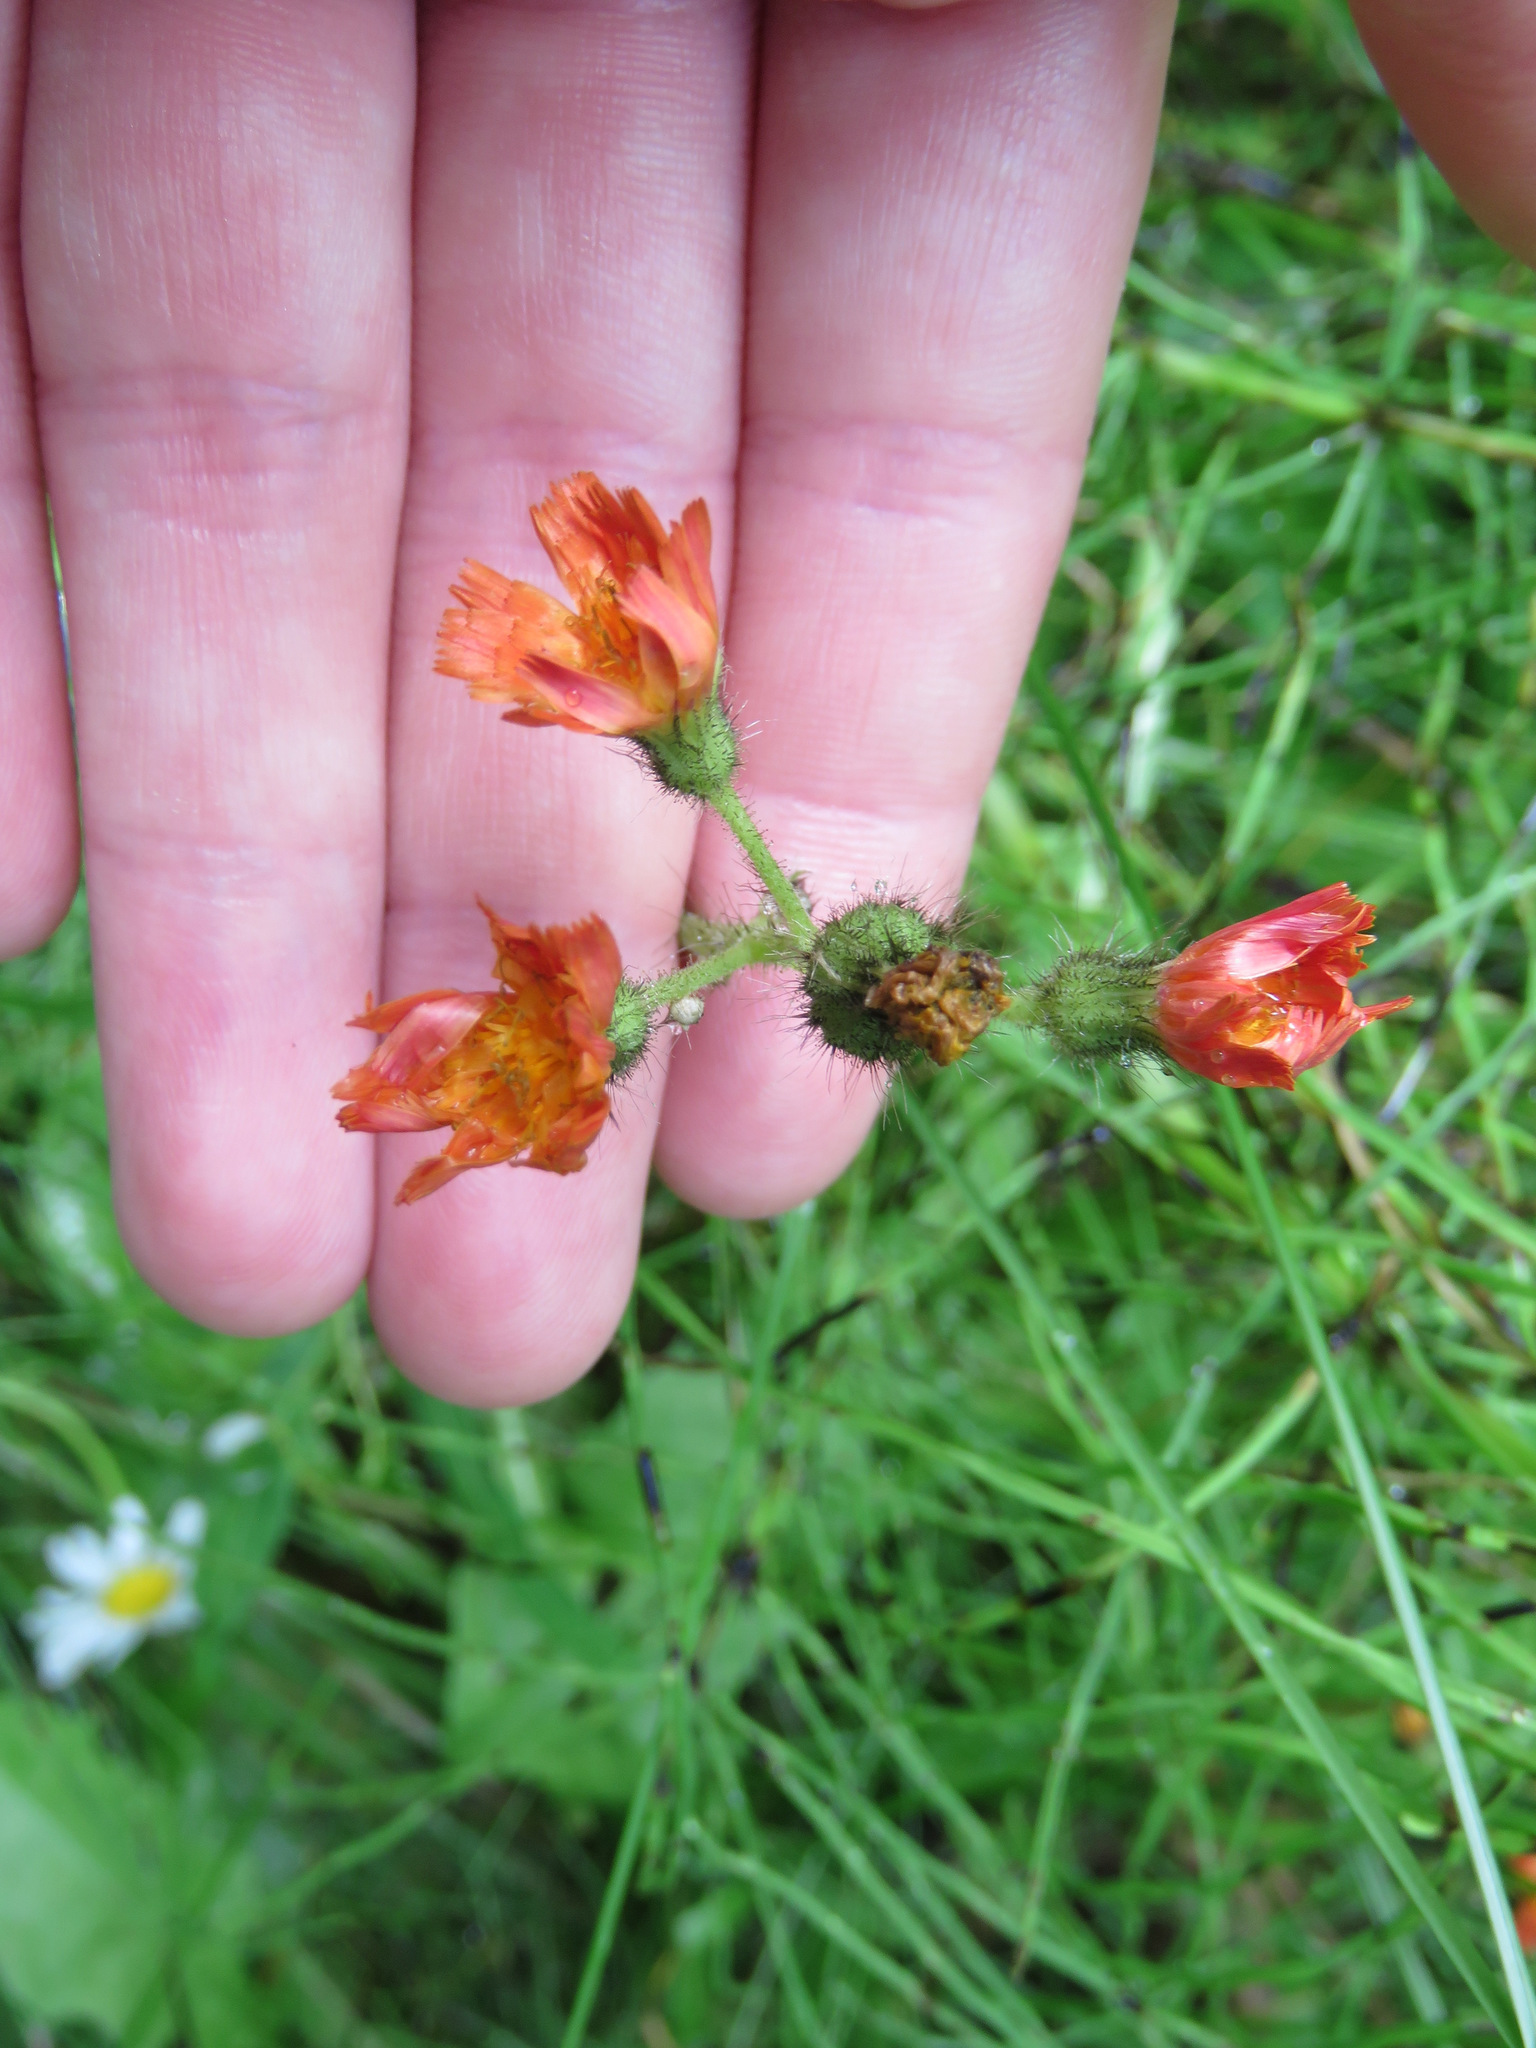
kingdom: Plantae
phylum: Tracheophyta
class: Magnoliopsida
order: Asterales
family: Asteraceae
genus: Pilosella
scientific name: Pilosella aurantiaca
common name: Fox-and-cubs
